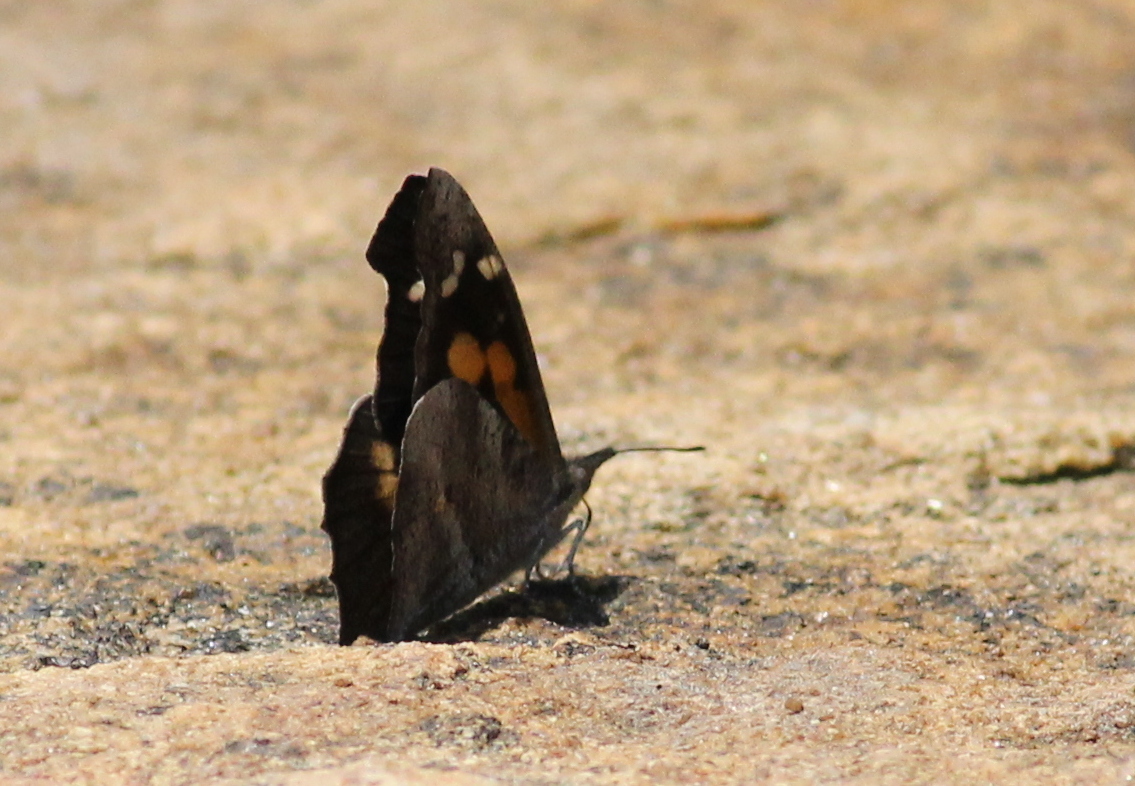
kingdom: Animalia
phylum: Arthropoda
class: Insecta
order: Lepidoptera
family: Nymphalidae
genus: Libythea
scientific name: Libythea laius
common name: African snout
